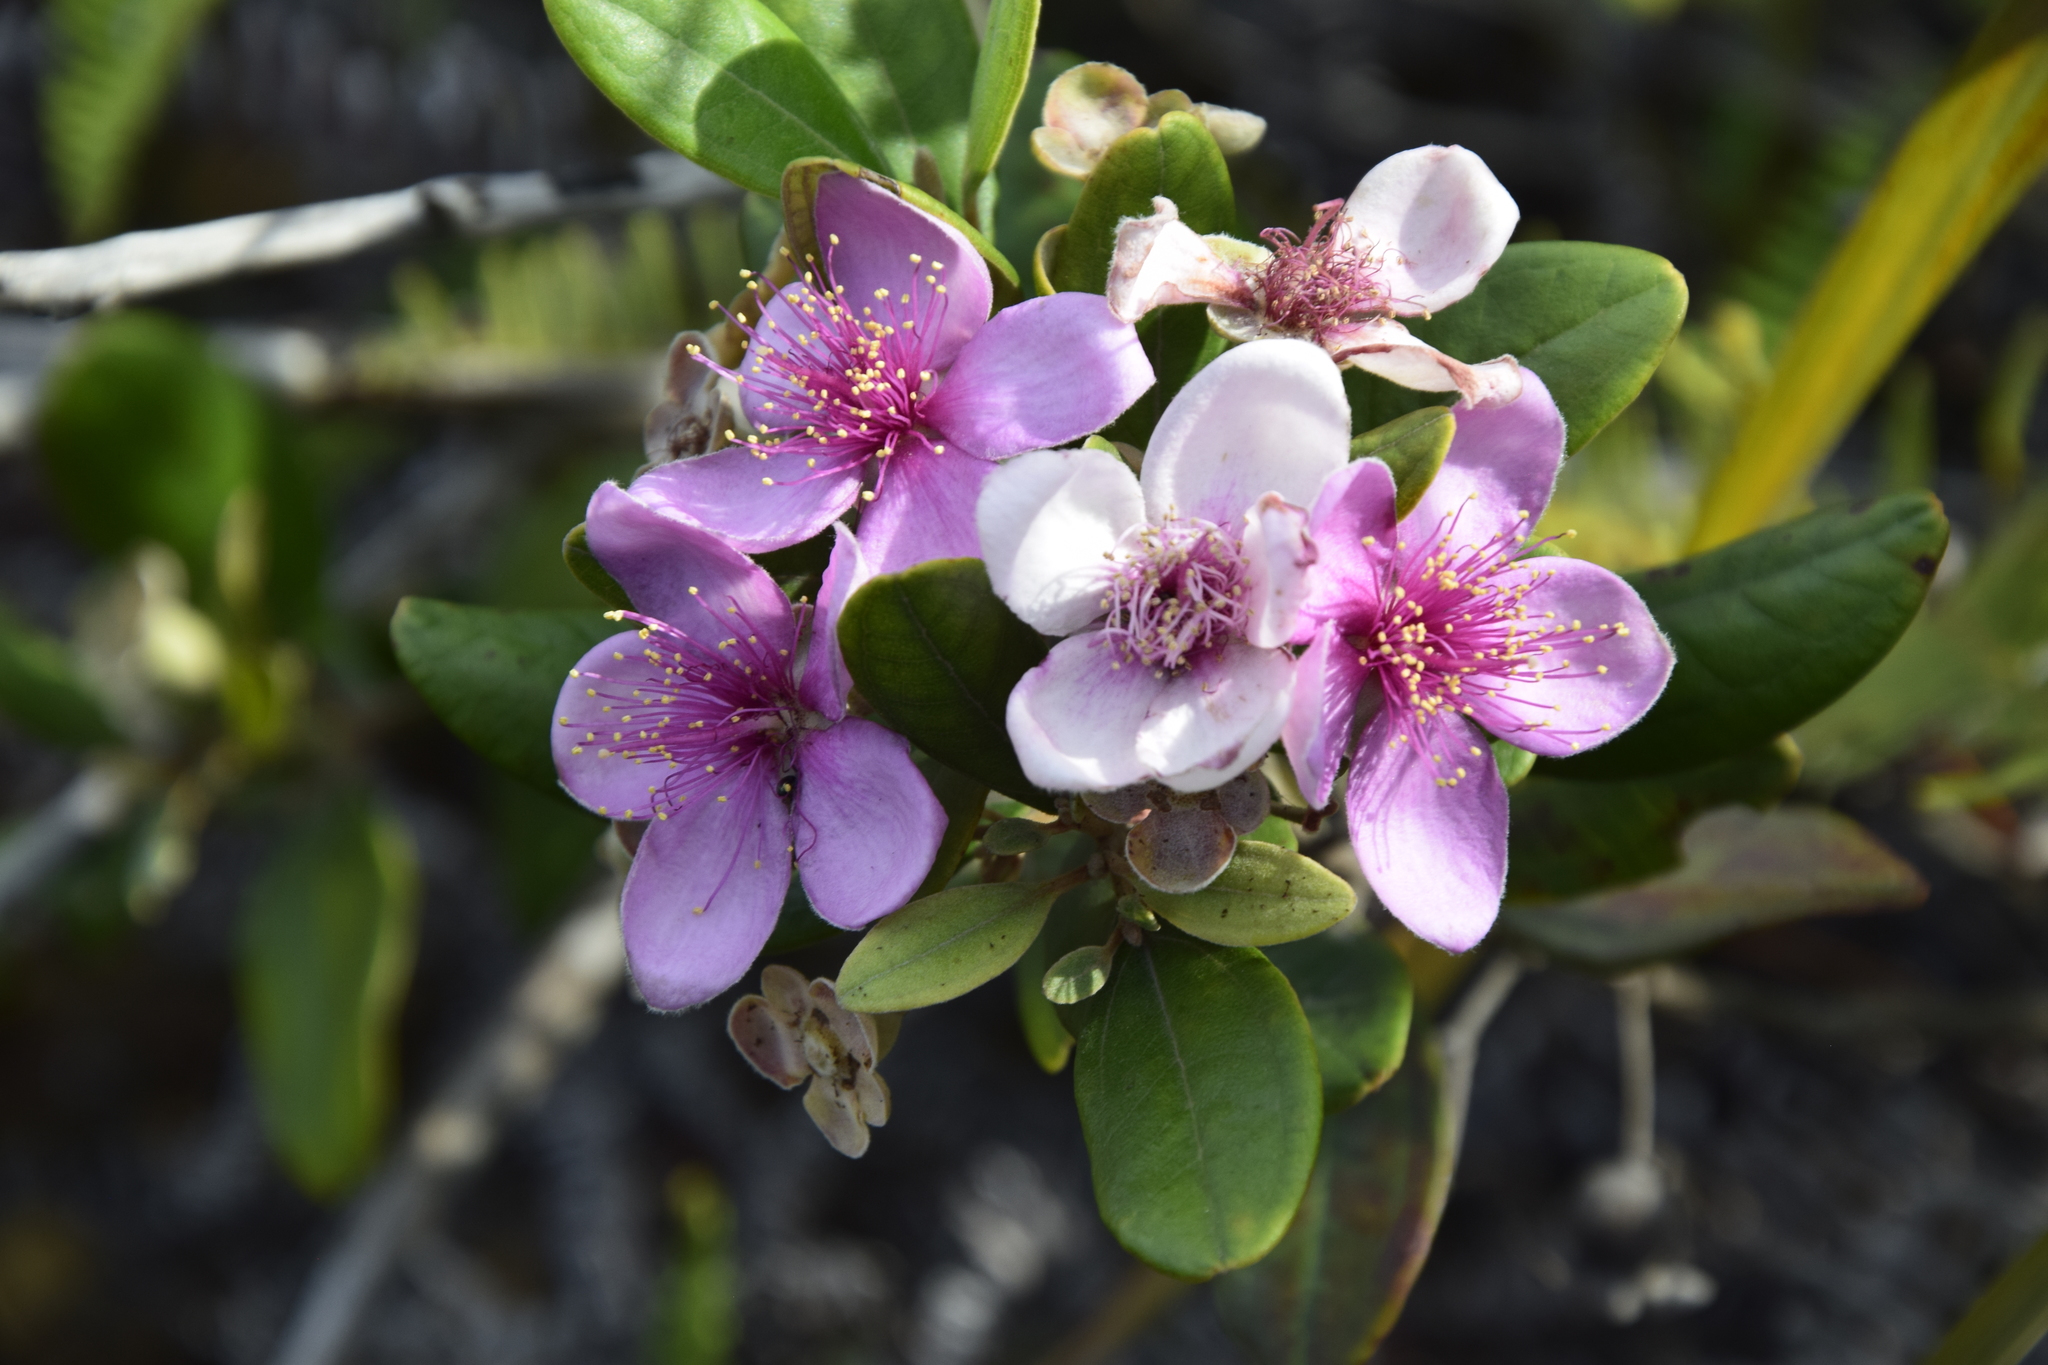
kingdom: Plantae
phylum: Tracheophyta
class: Magnoliopsida
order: Myrtales
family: Myrtaceae
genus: Rhodomyrtus
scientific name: Rhodomyrtus tomentosa
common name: Rose myrtle
